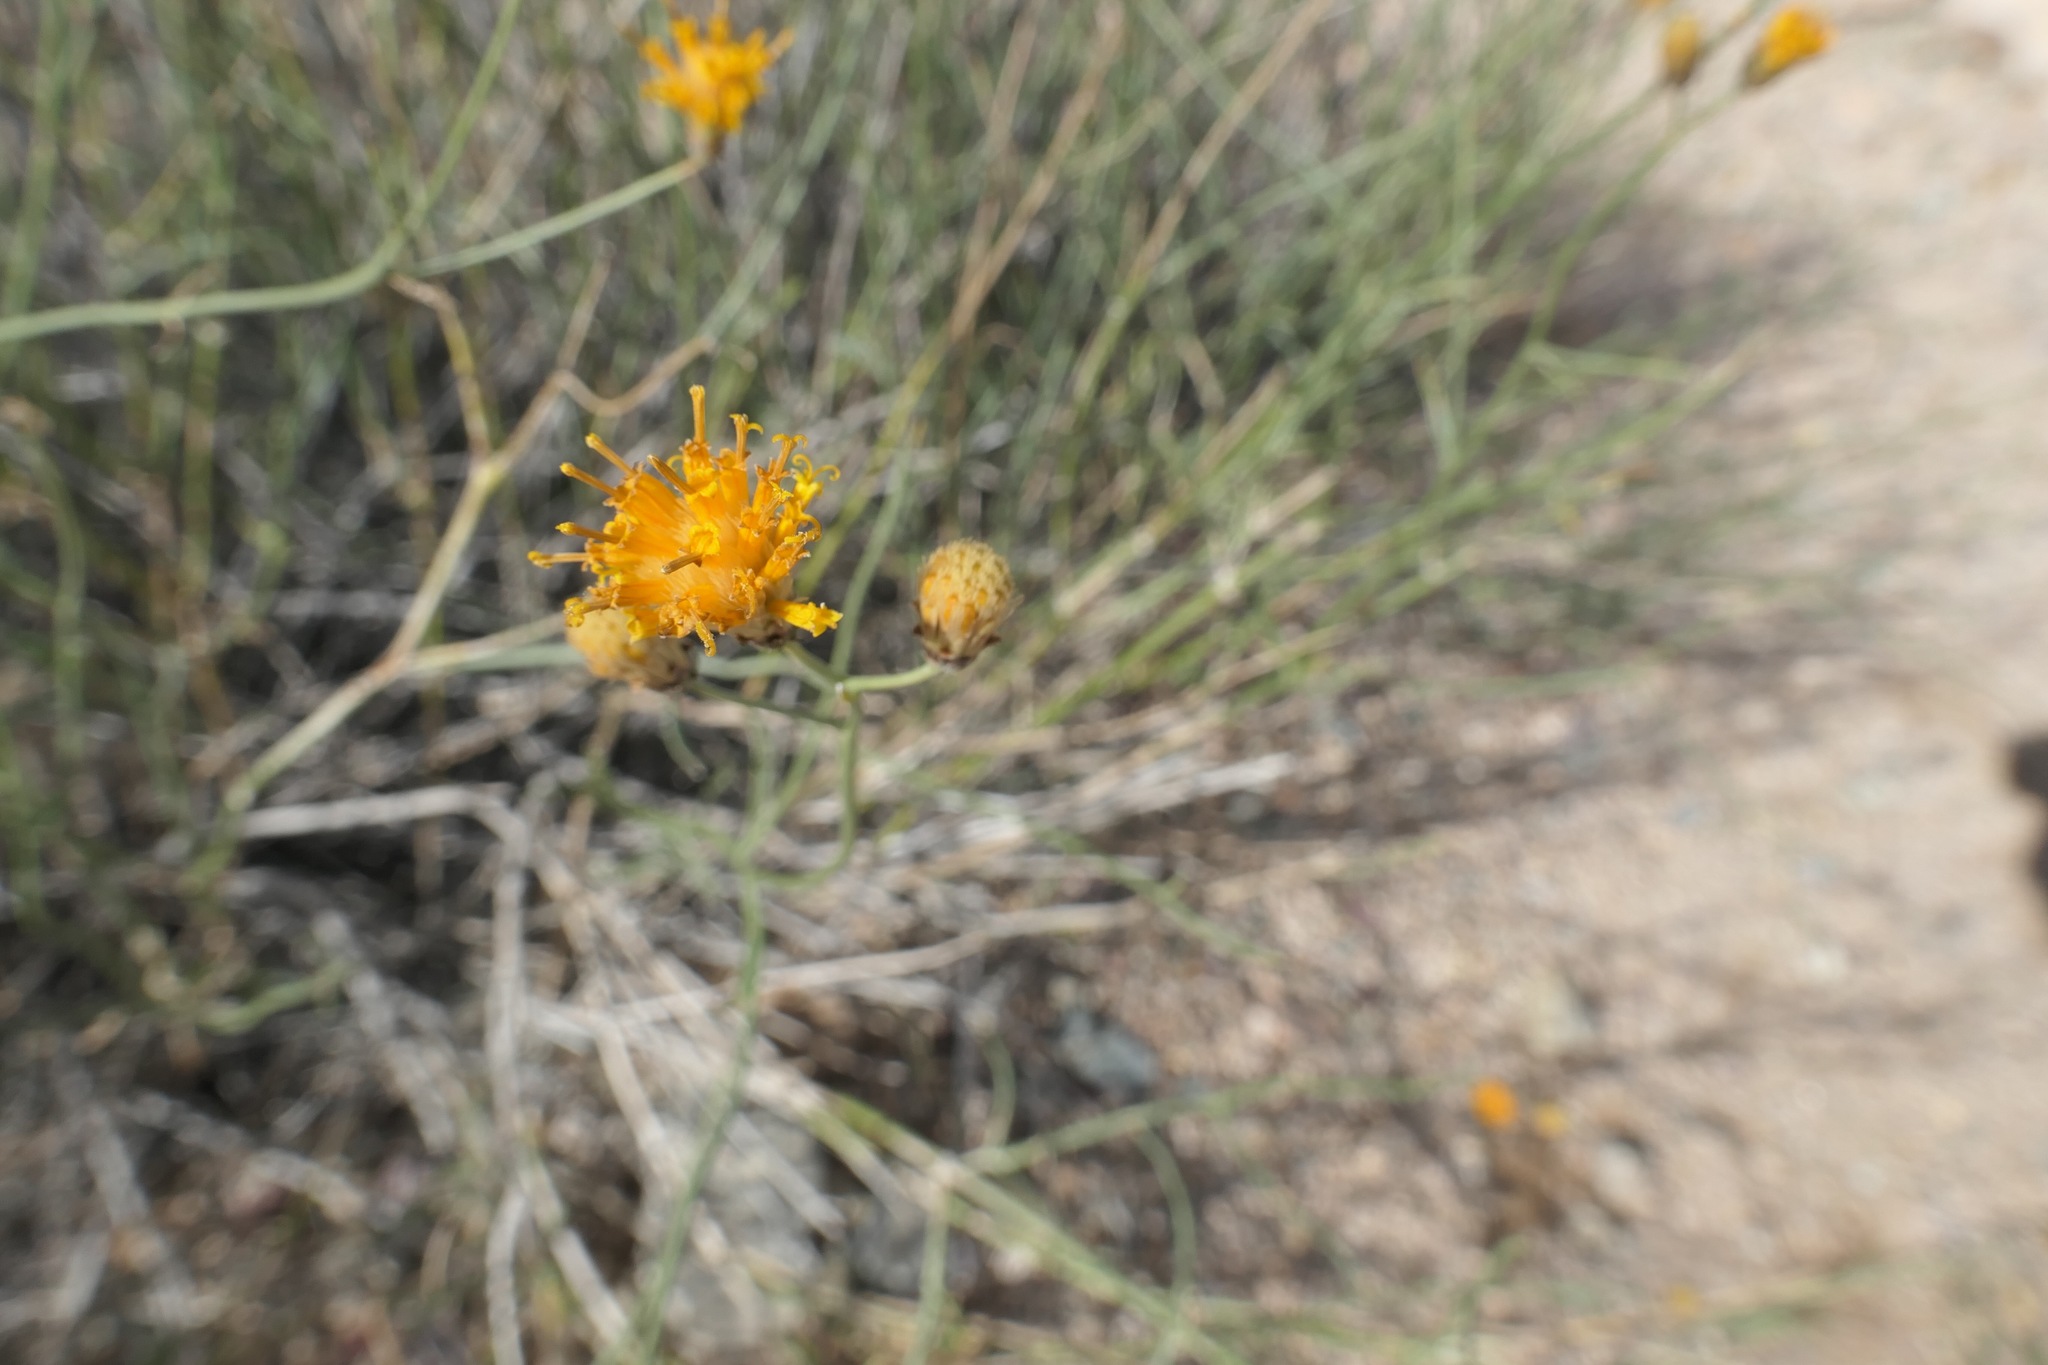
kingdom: Plantae
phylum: Tracheophyta
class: Magnoliopsida
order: Asterales
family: Asteraceae
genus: Bebbia
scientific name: Bebbia juncea
